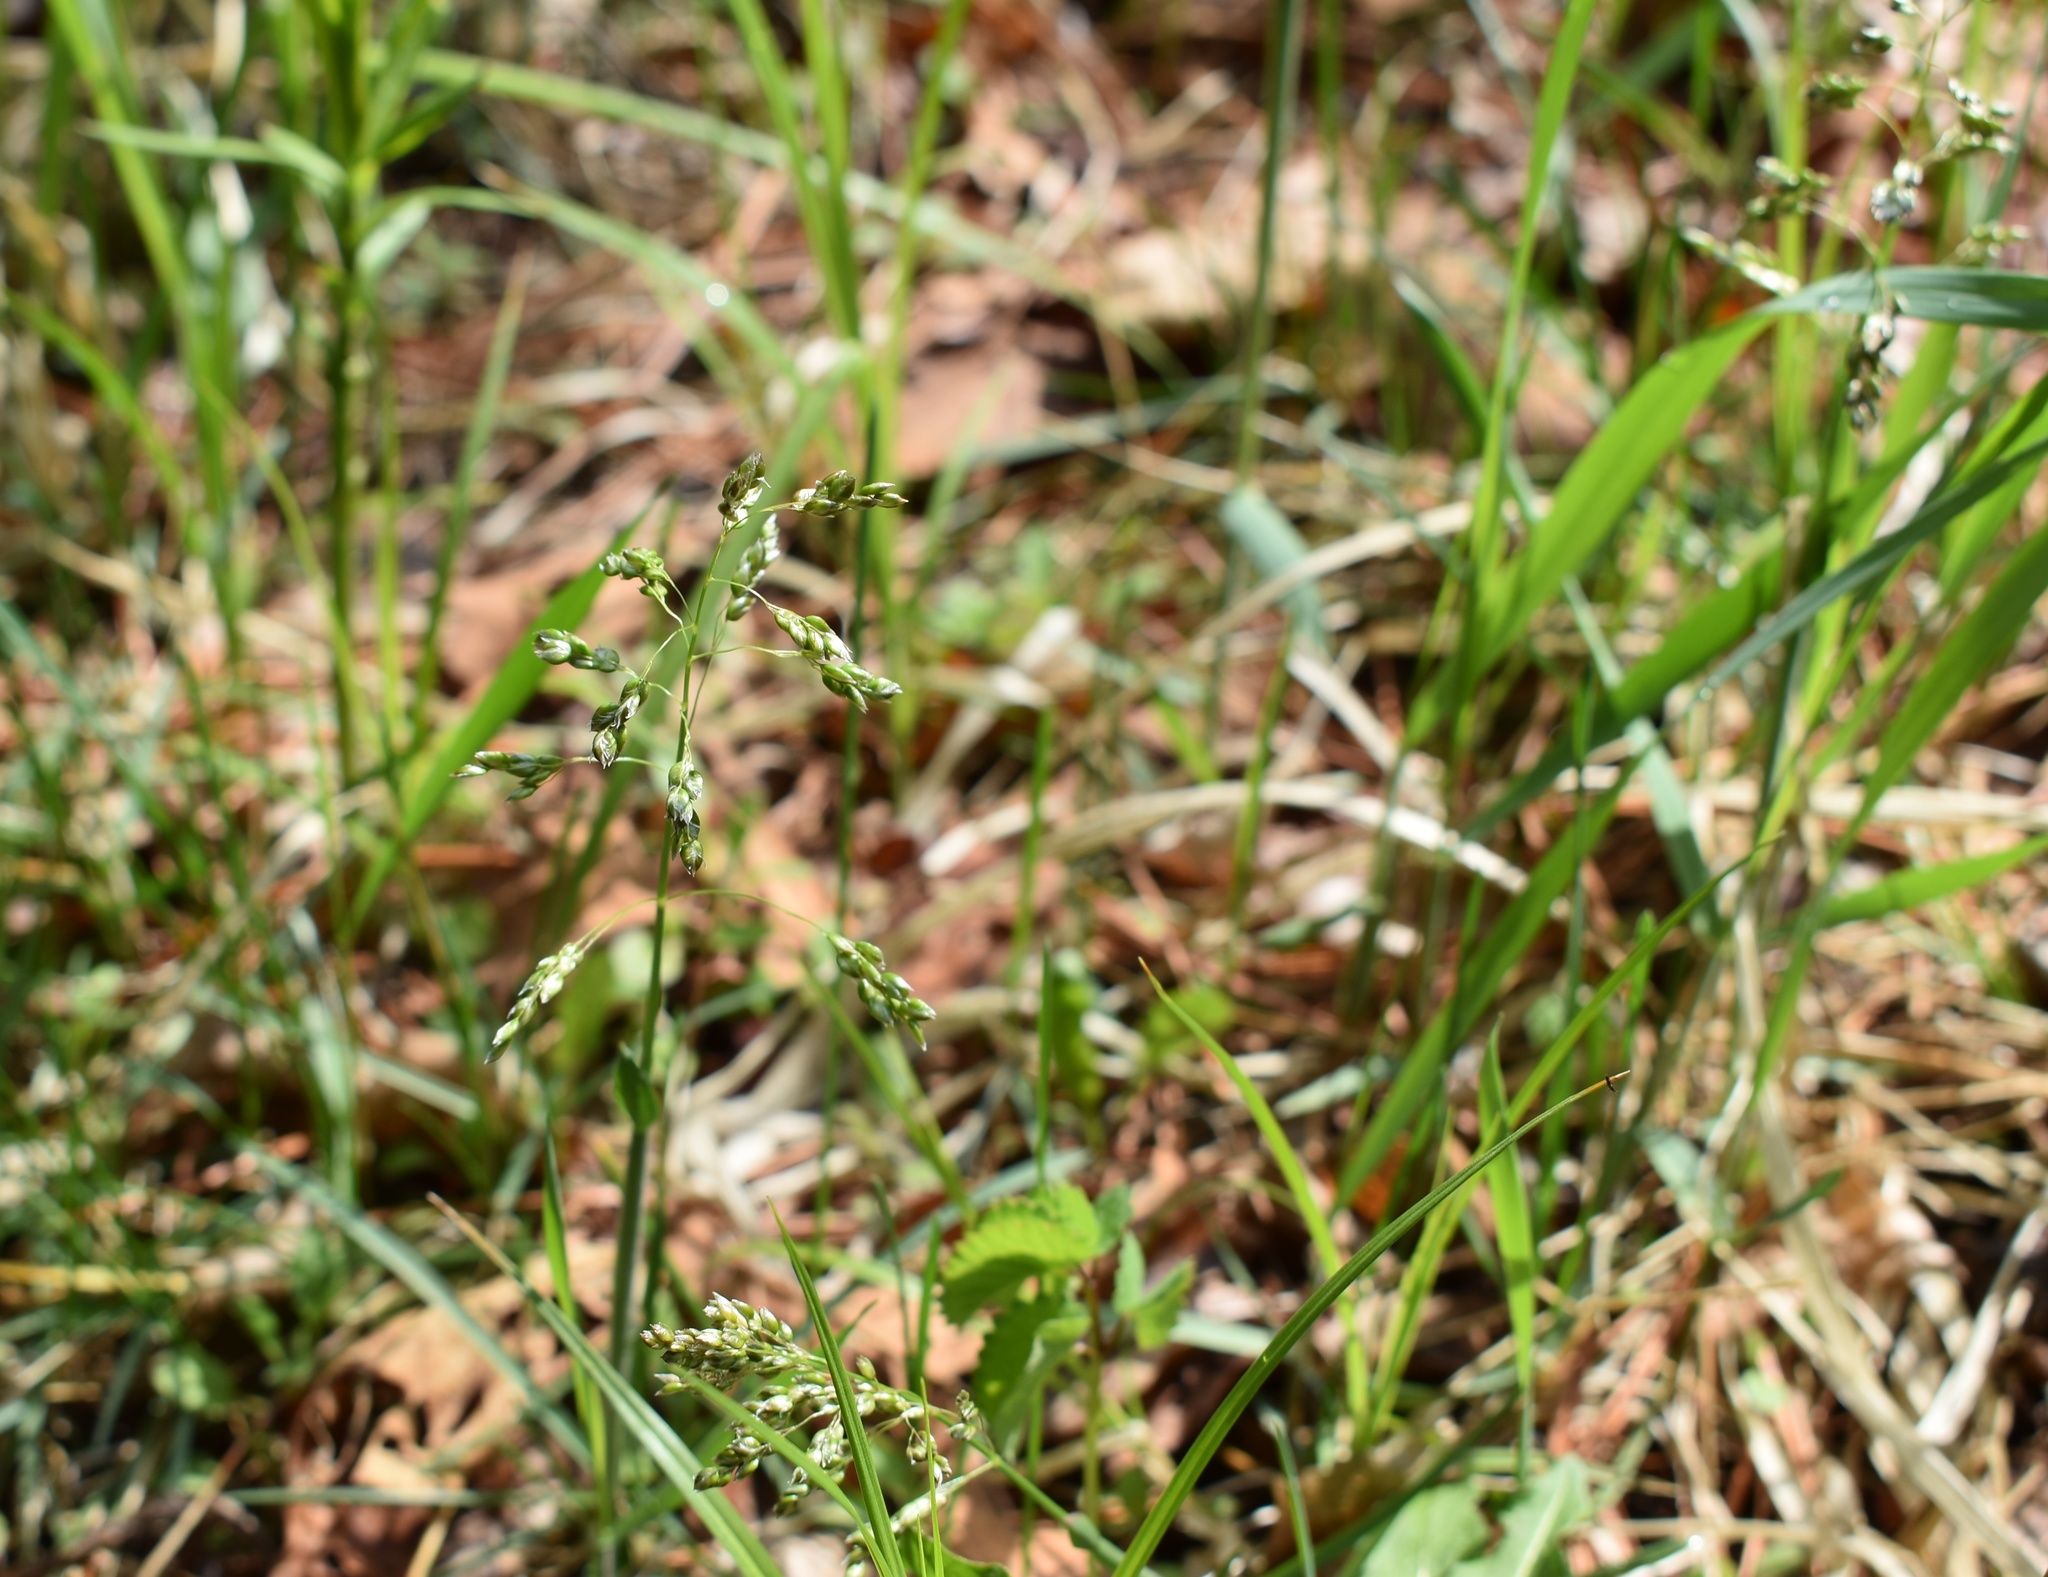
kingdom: Plantae
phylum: Tracheophyta
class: Liliopsida
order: Poales
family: Poaceae
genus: Anthoxanthum
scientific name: Anthoxanthum glabrum
